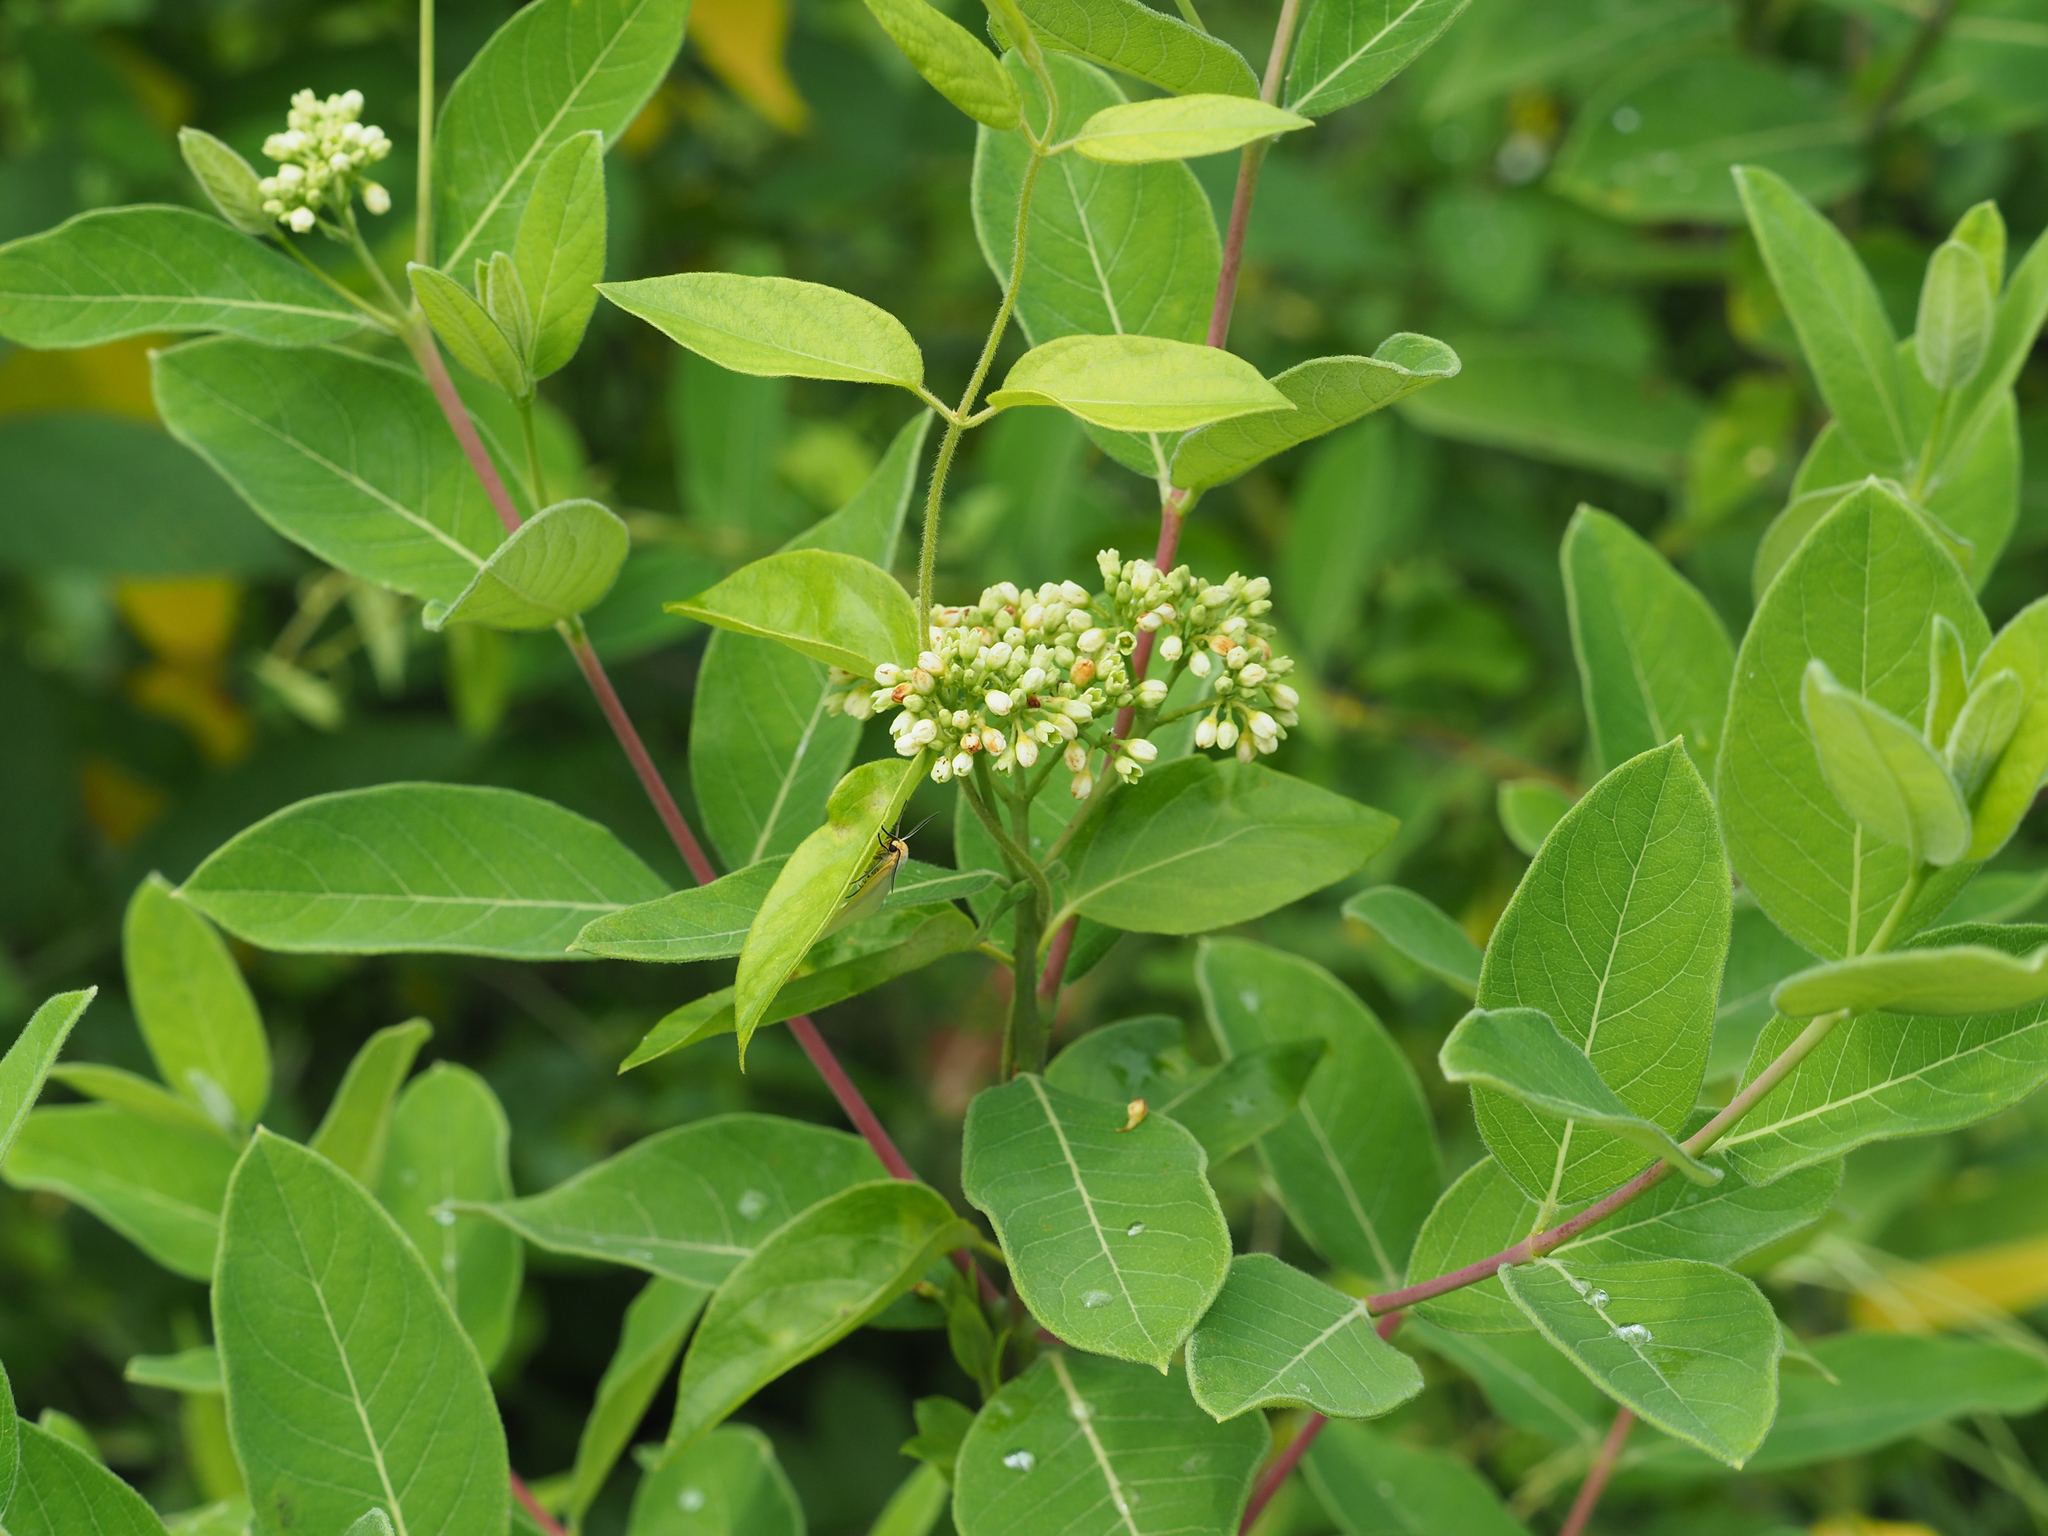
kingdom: Plantae
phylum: Tracheophyta
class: Magnoliopsida
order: Gentianales
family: Apocynaceae
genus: Apocynum
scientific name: Apocynum cannabinum
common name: Hemp dogbane
